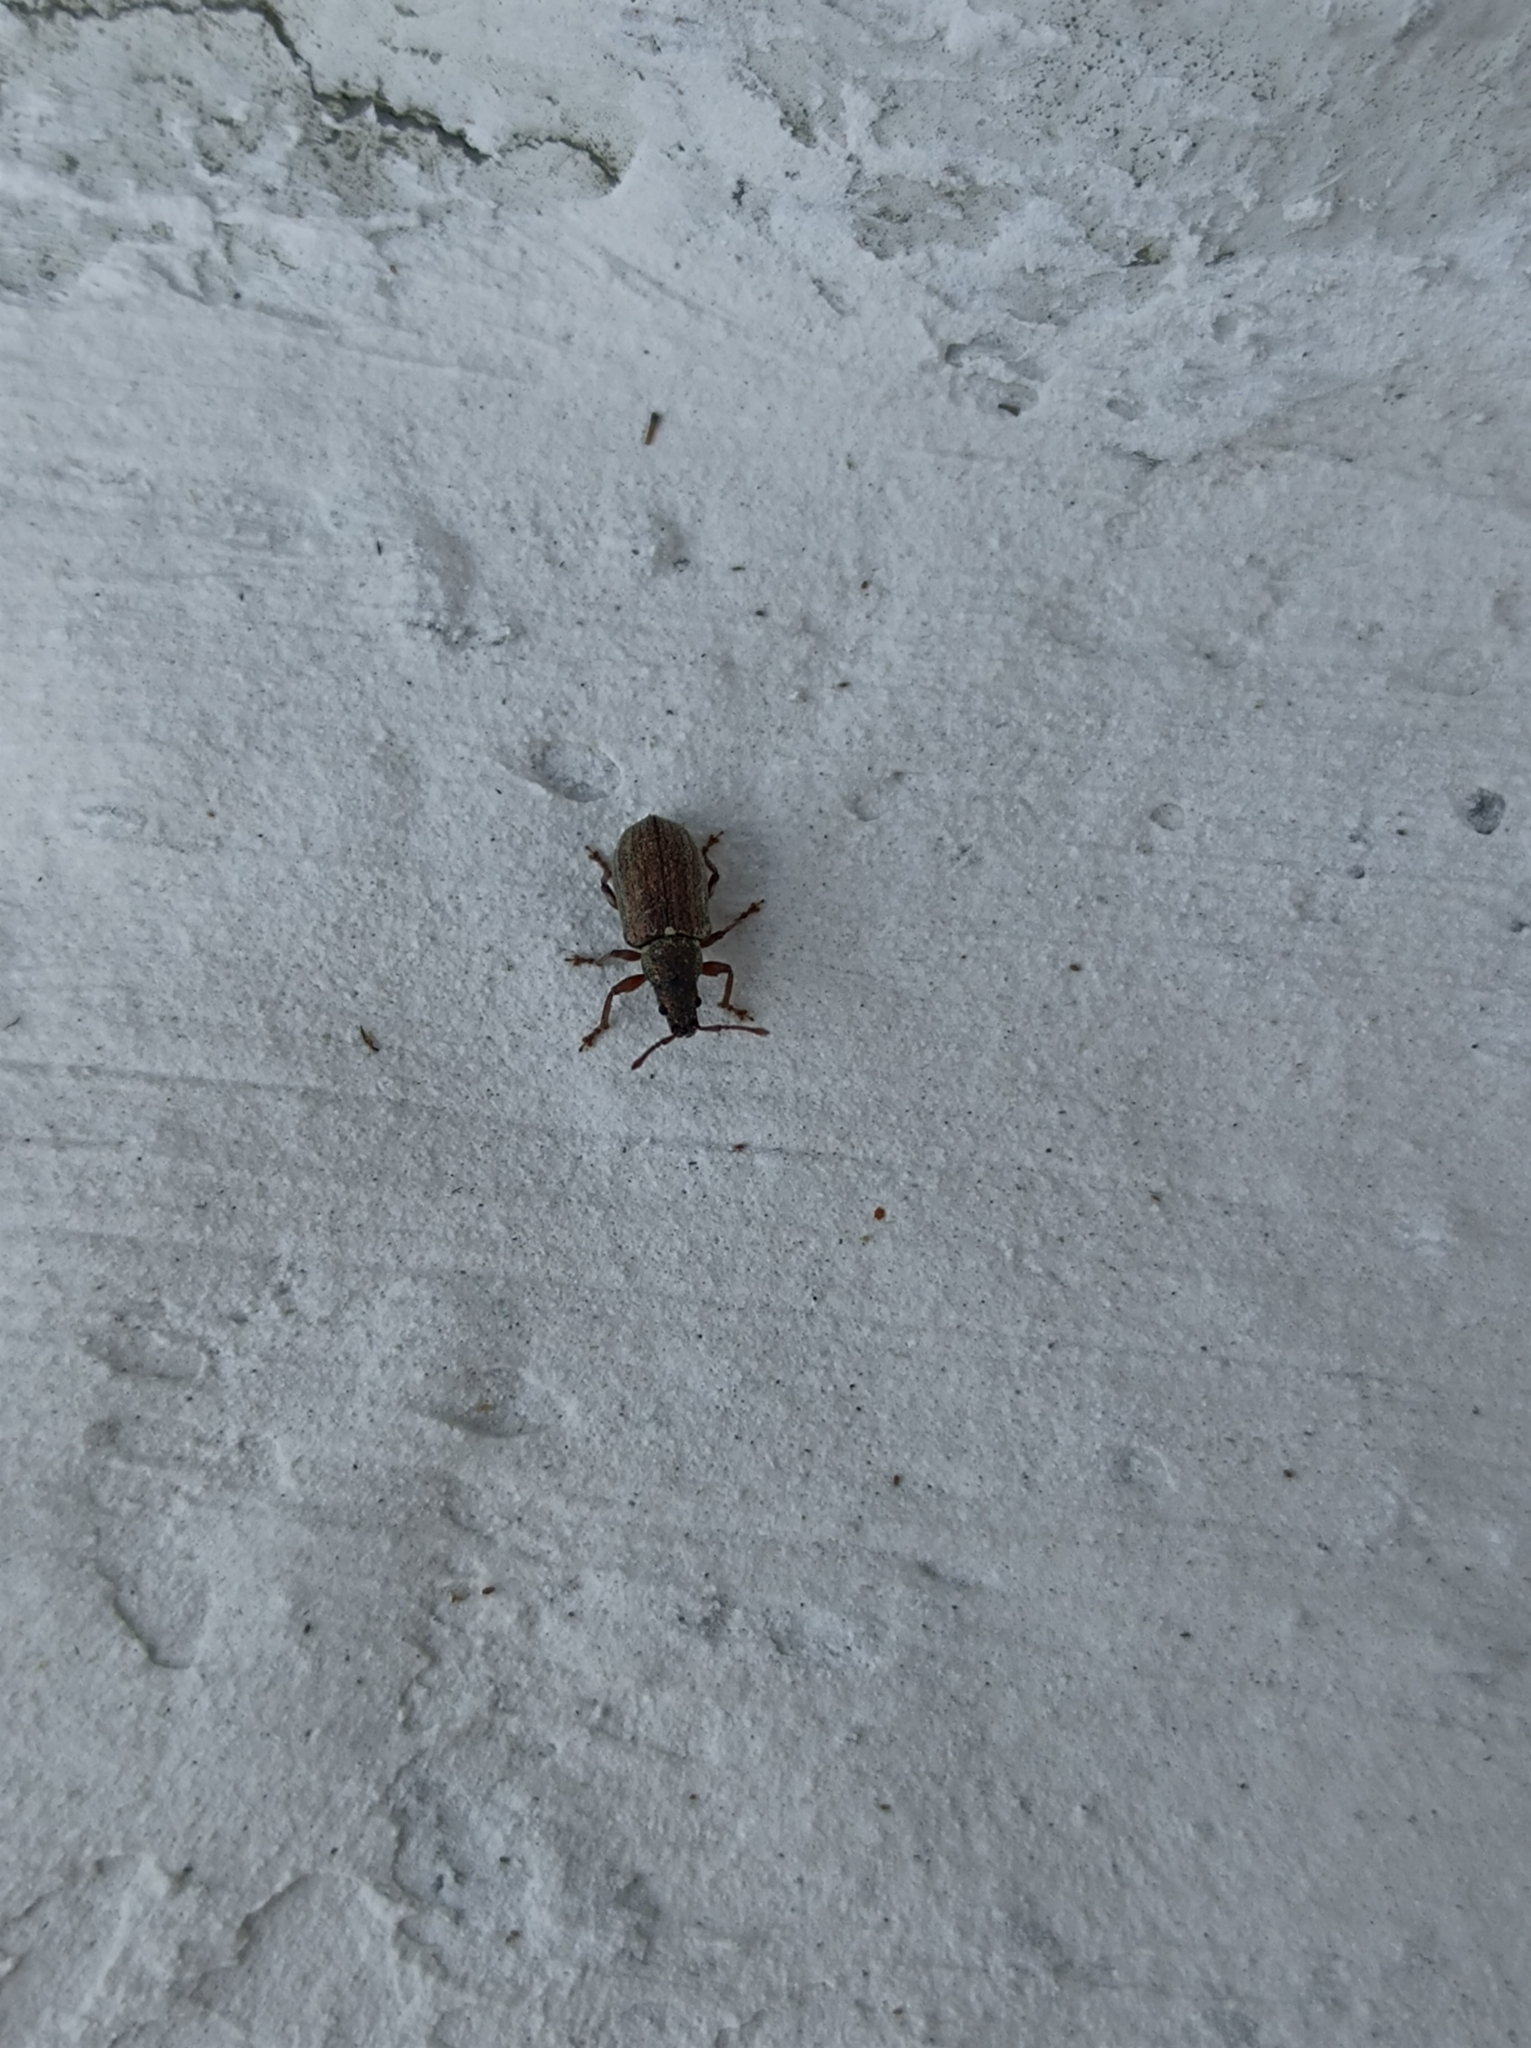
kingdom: Animalia
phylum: Arthropoda
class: Insecta
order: Coleoptera
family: Curculionidae
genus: Phyllobius
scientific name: Phyllobius pyri
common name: Common leaf weevil
